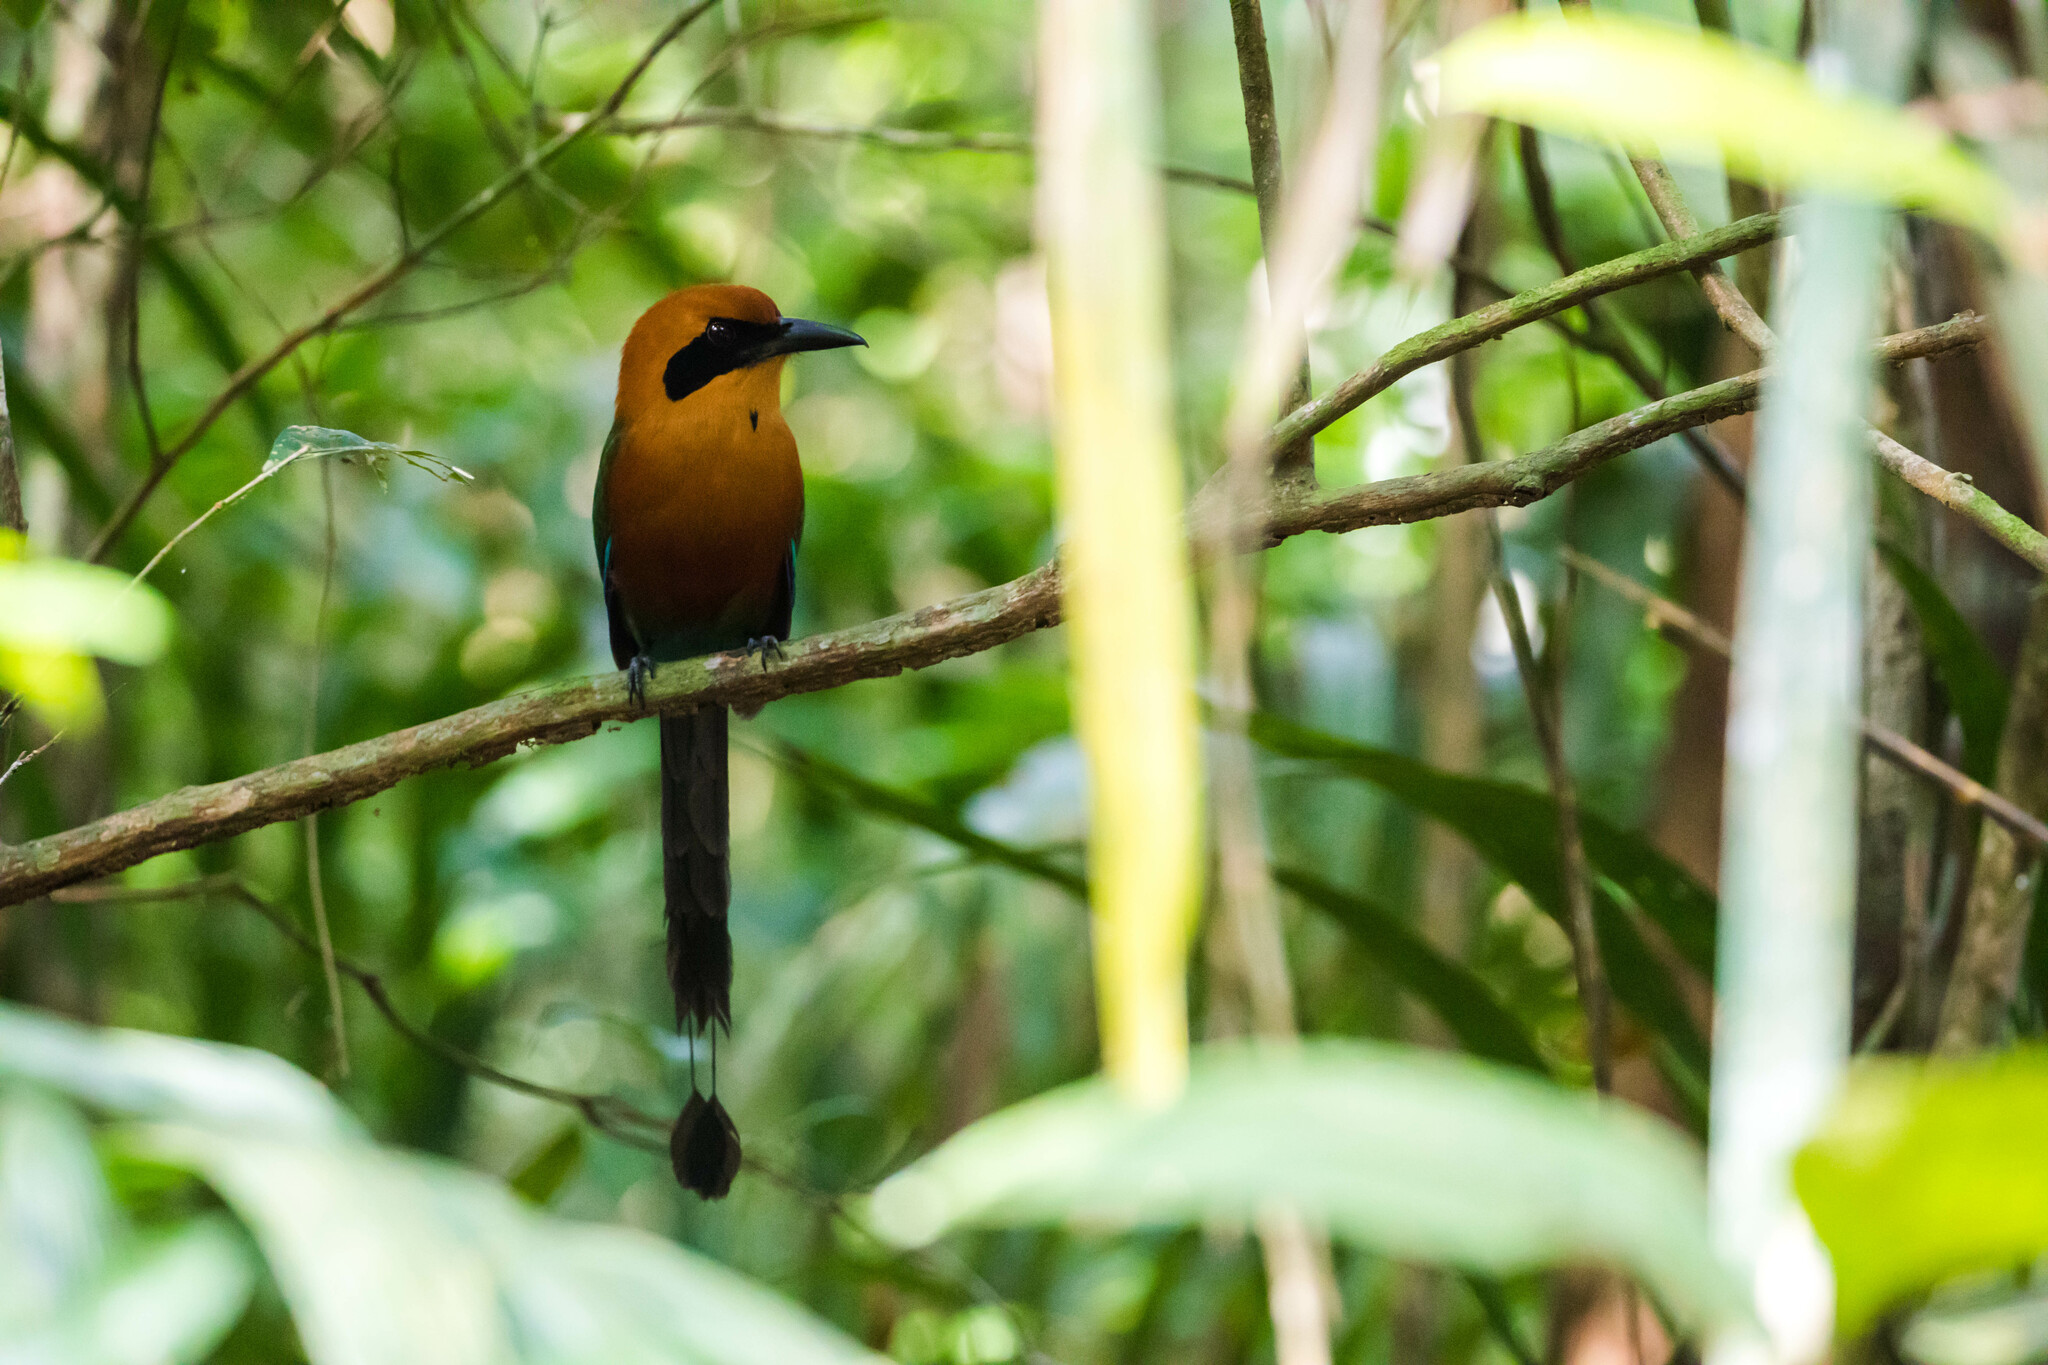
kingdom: Animalia
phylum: Chordata
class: Aves
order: Coraciiformes
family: Momotidae
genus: Baryphthengus
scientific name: Baryphthengus martii
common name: Rufous motmot
